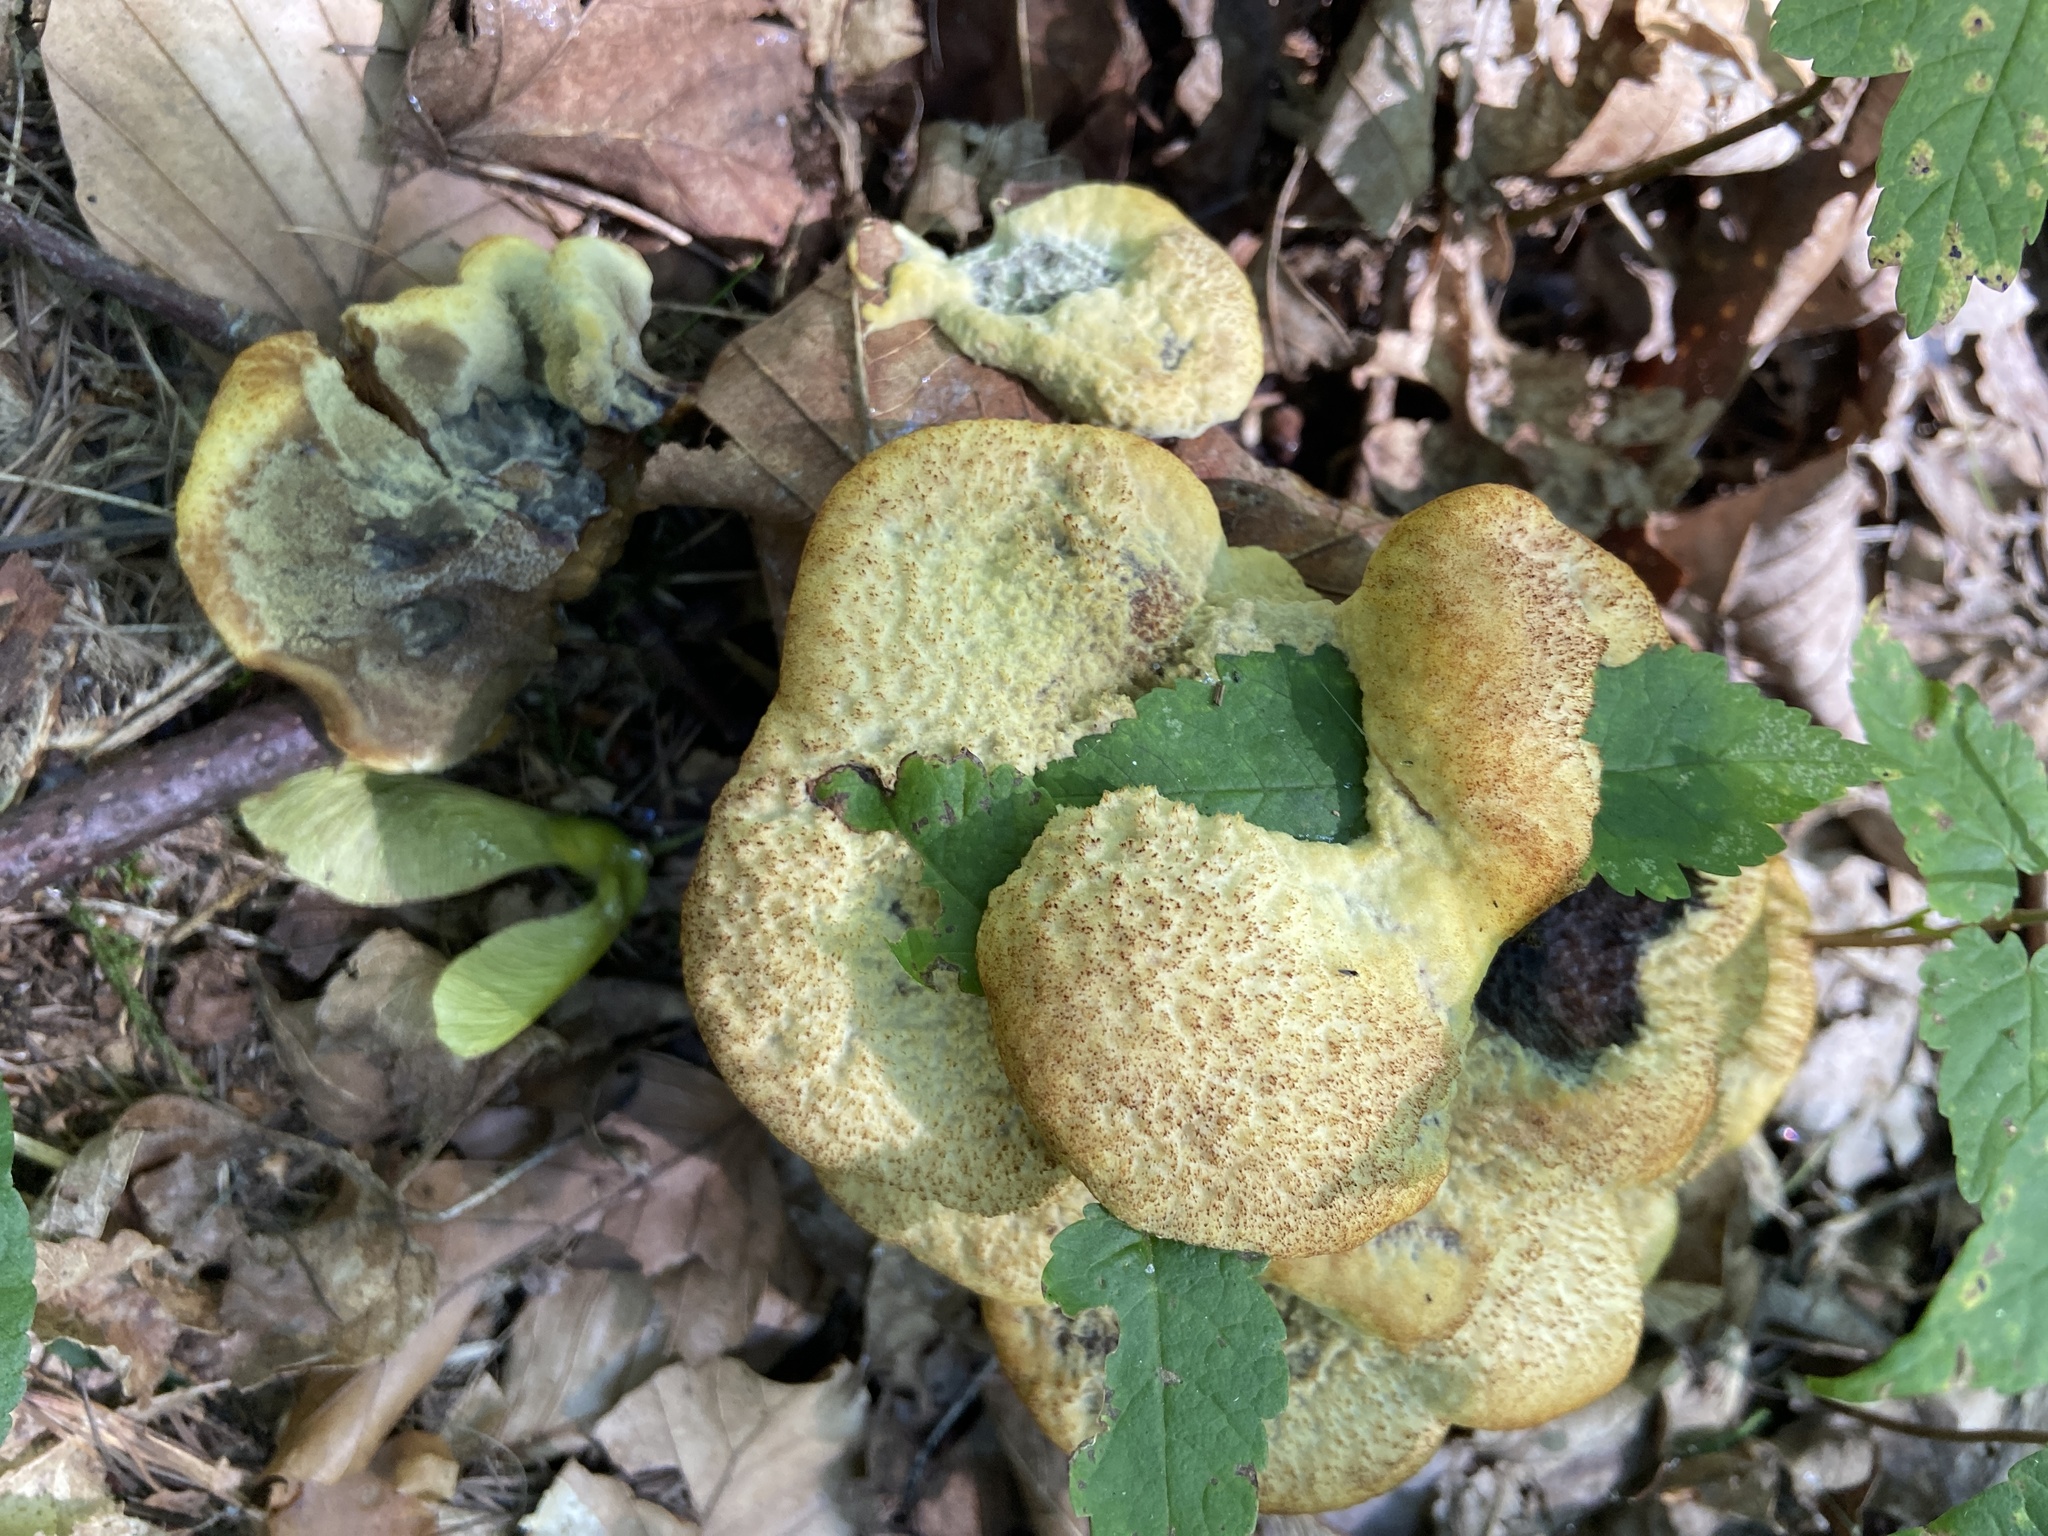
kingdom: Fungi
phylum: Basidiomycota
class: Agaricomycetes
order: Polyporales
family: Laetiporaceae
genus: Phaeolus
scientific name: Phaeolus schweinitzii
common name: Dyer's mazegill
